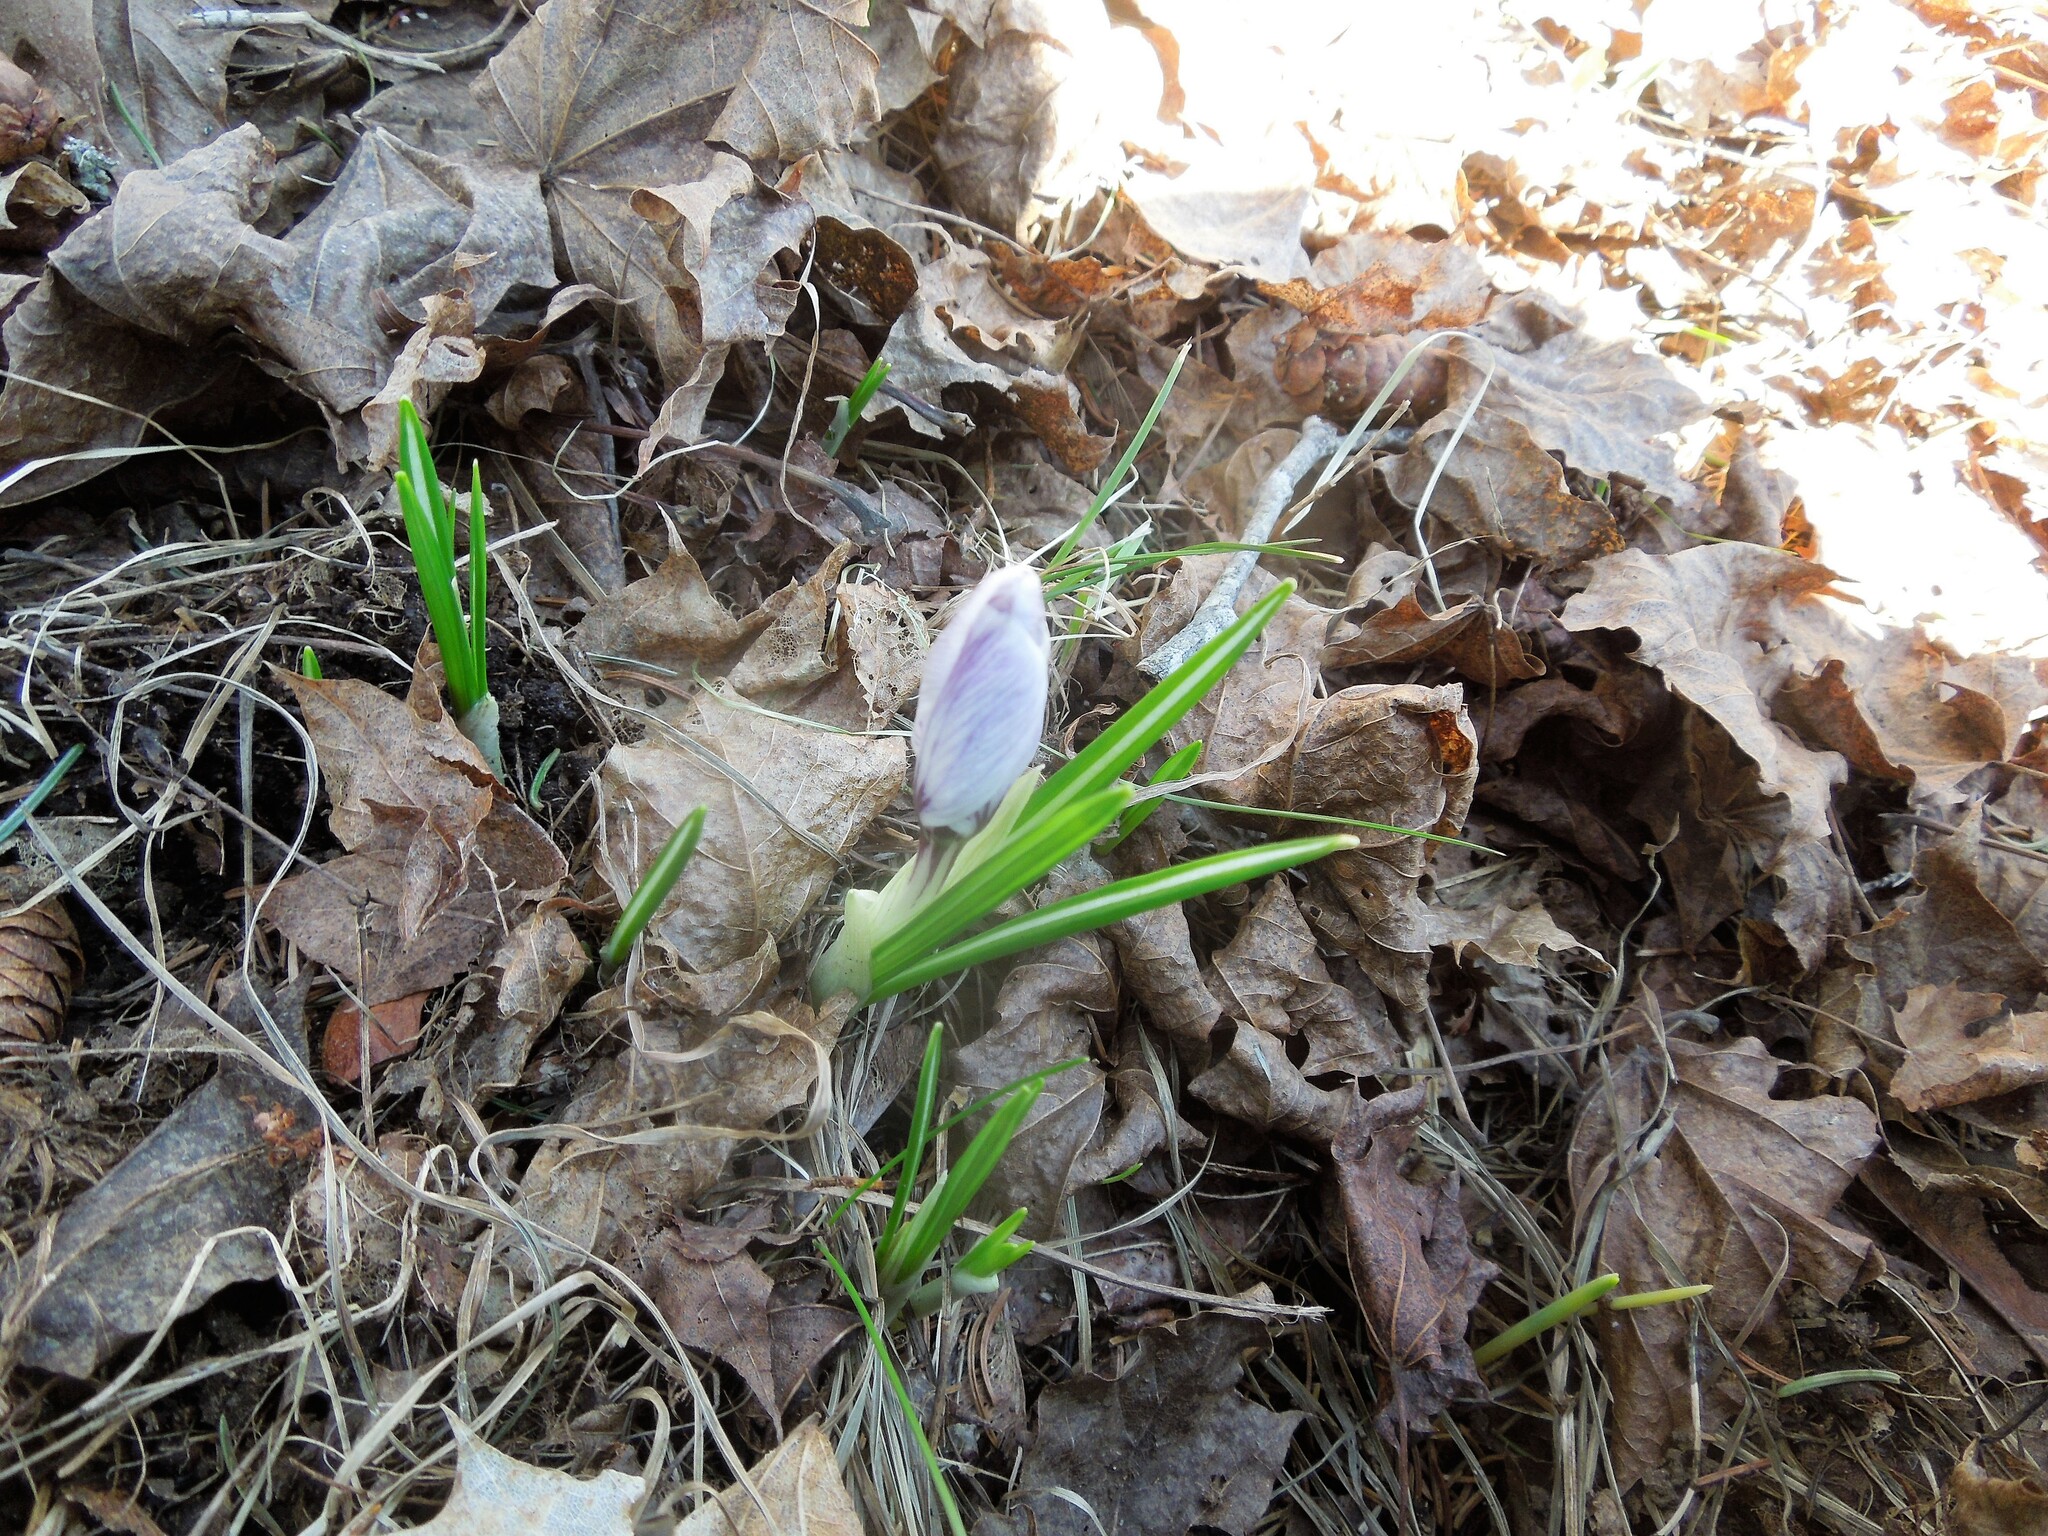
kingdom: Plantae
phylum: Tracheophyta
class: Liliopsida
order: Asparagales
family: Iridaceae
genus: Crocus
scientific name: Crocus vernus
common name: Spring crocus
